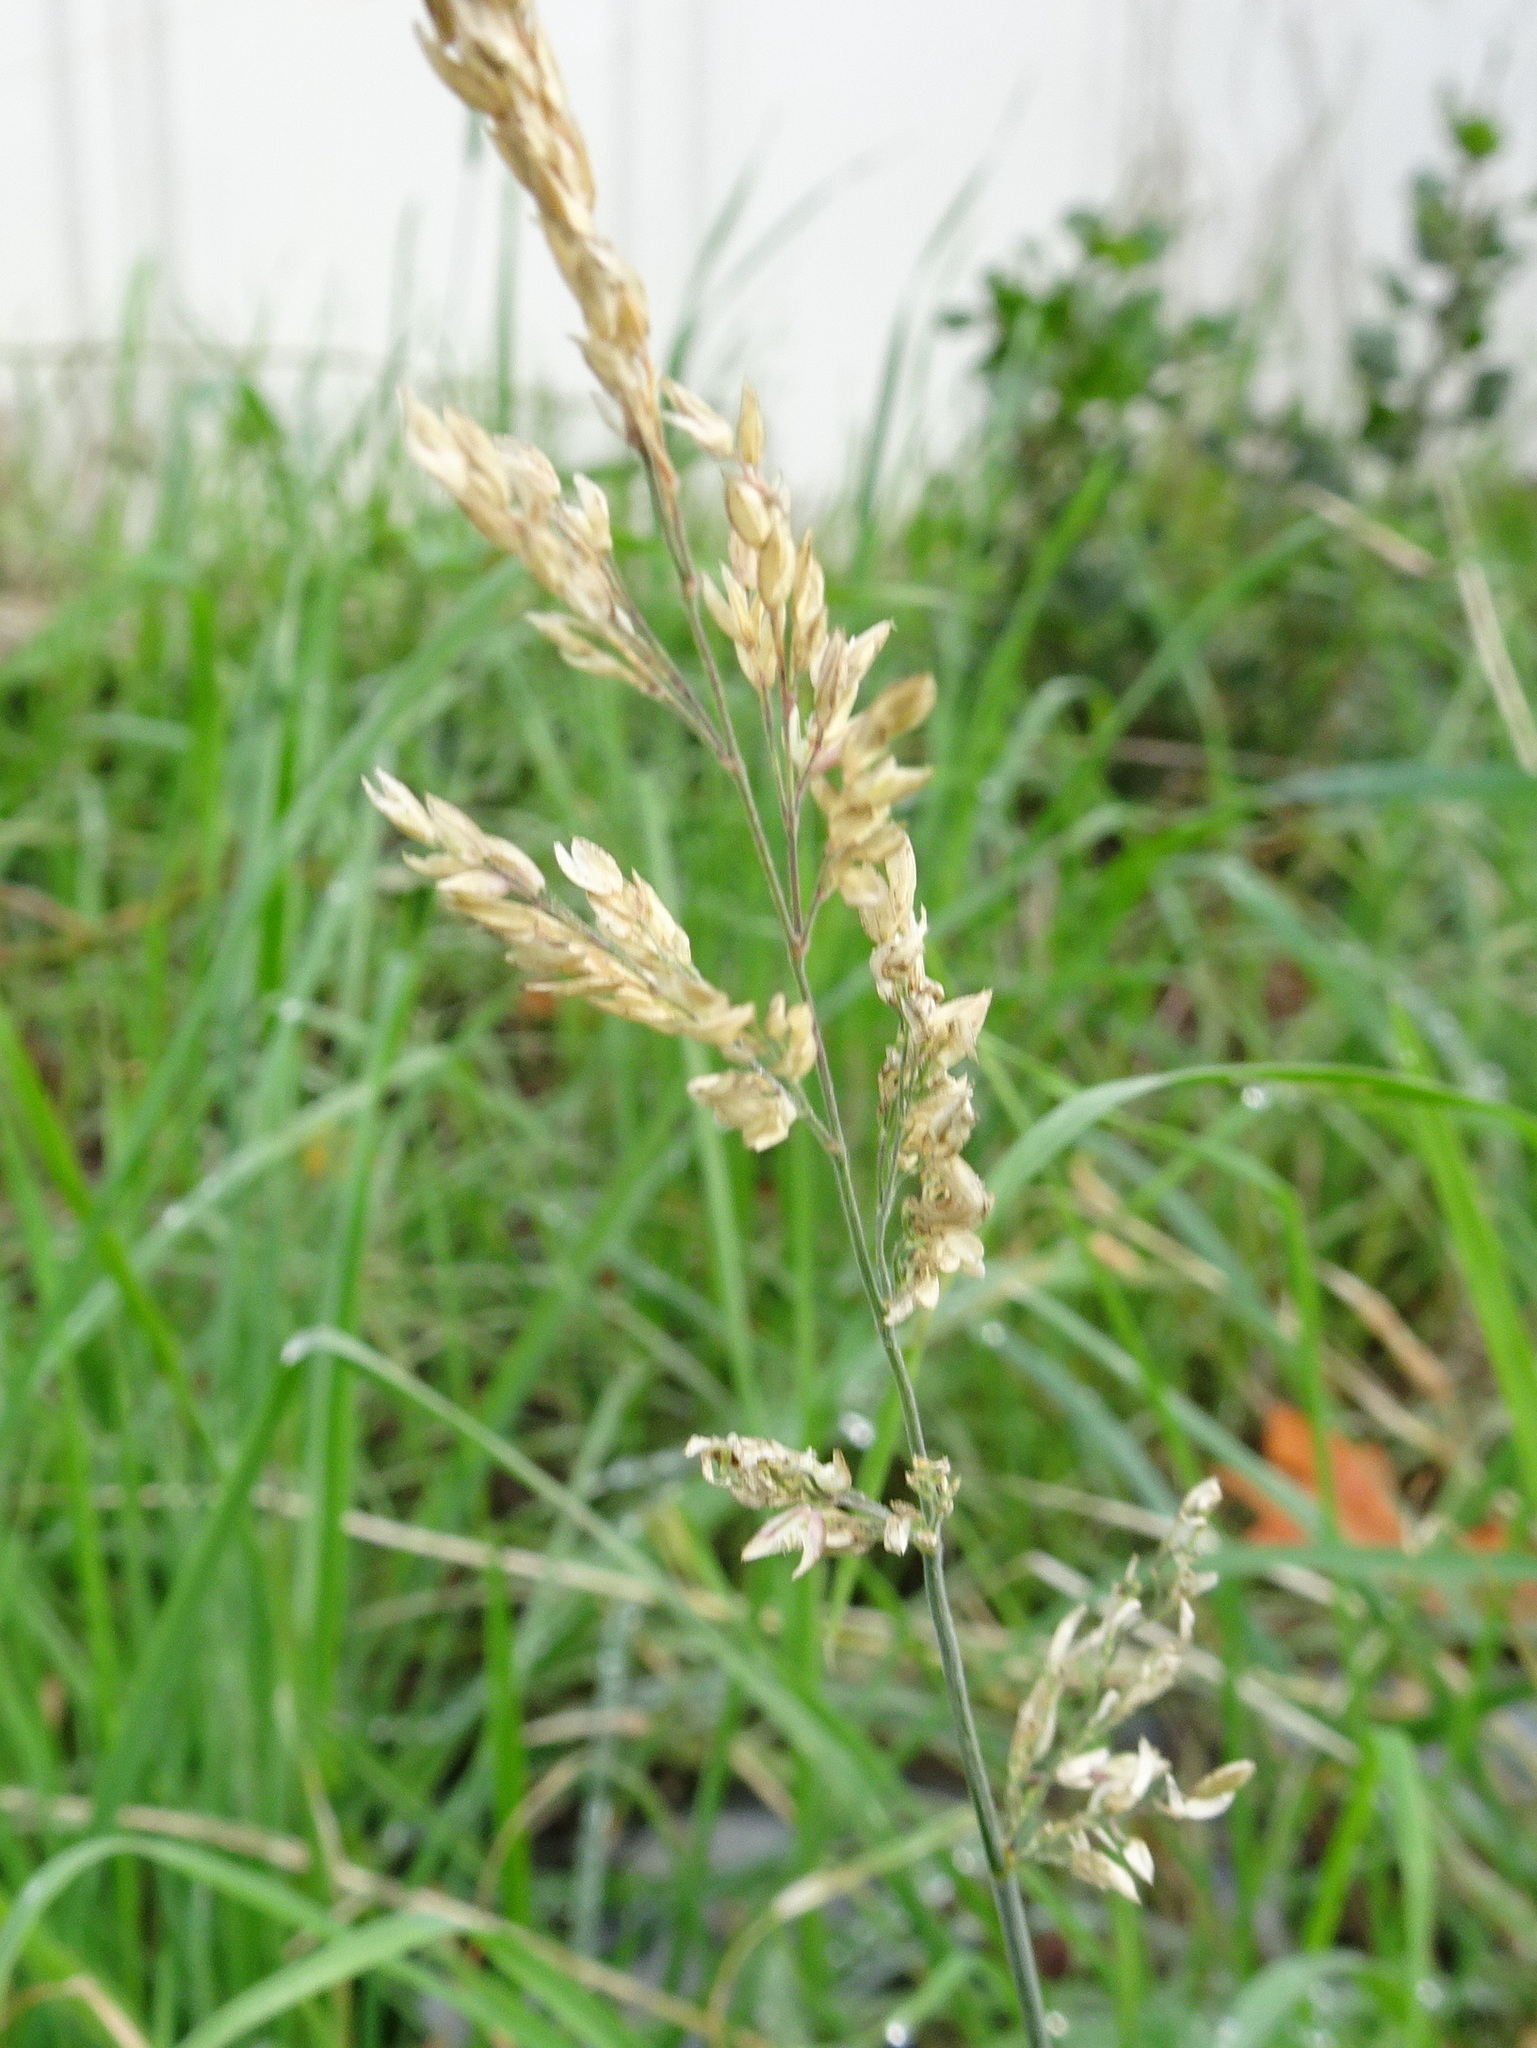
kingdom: Plantae
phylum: Tracheophyta
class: Liliopsida
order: Poales
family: Poaceae
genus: Holcus
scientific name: Holcus lanatus
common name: Yorkshire-fog
